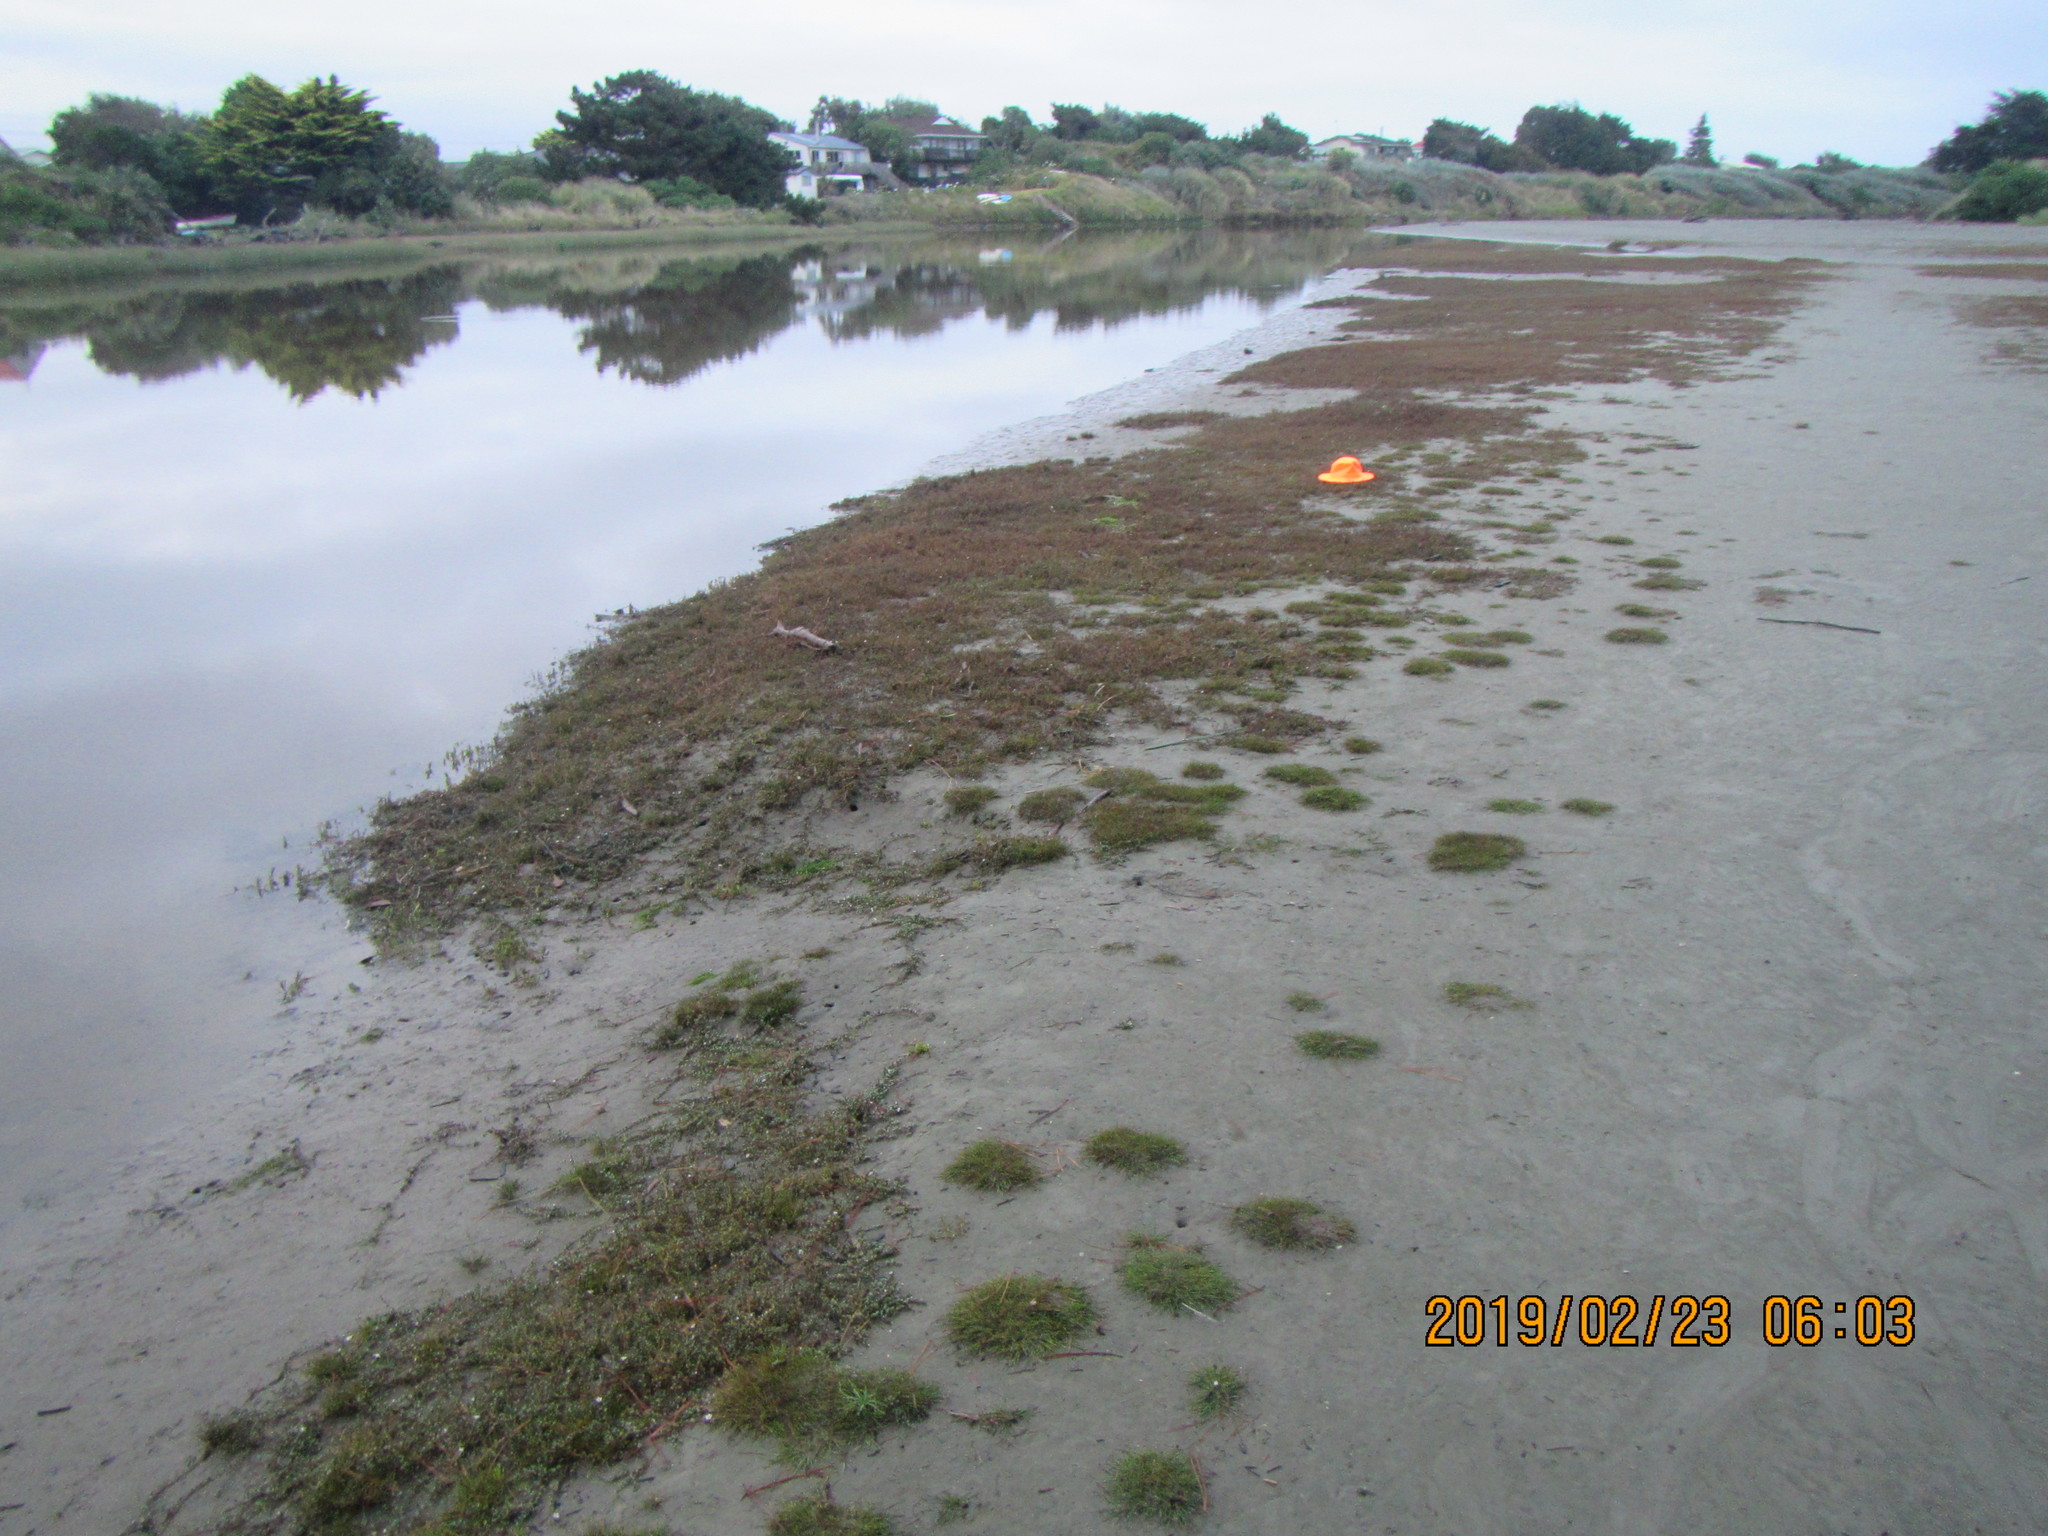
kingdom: Plantae
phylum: Tracheophyta
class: Liliopsida
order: Poales
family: Cyperaceae
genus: Isolepis
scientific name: Isolepis cernua
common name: Slender club-rush
